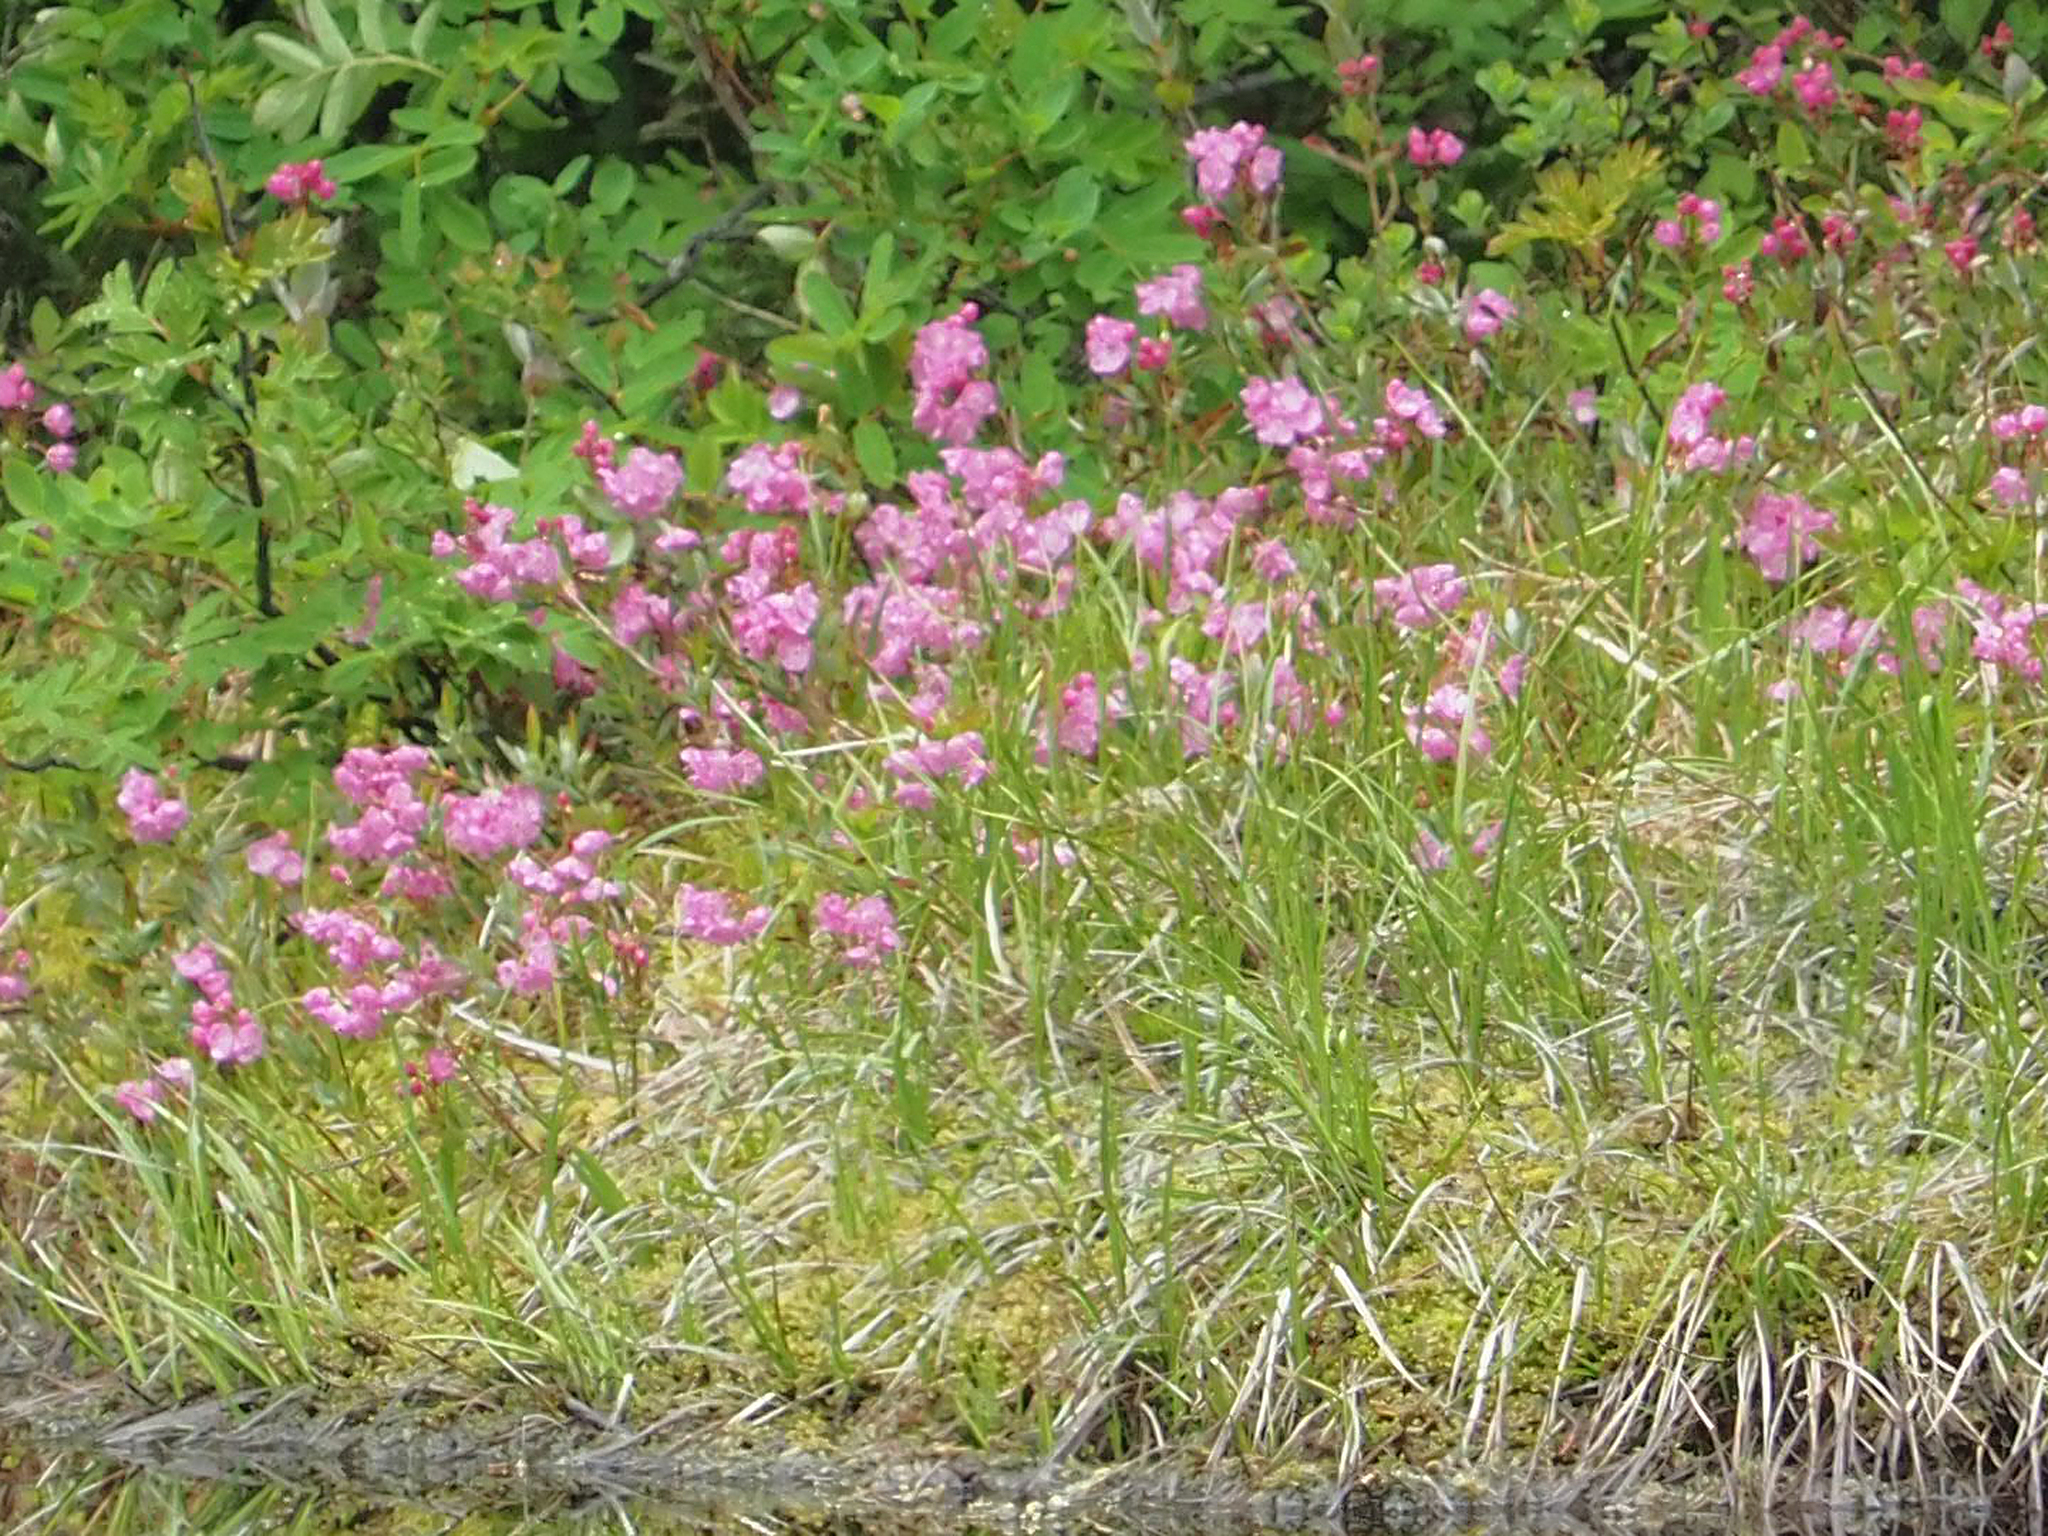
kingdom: Plantae
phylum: Tracheophyta
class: Magnoliopsida
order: Ericales
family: Ericaceae
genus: Kalmia
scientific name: Kalmia microphylla
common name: Alpine bog laurel
